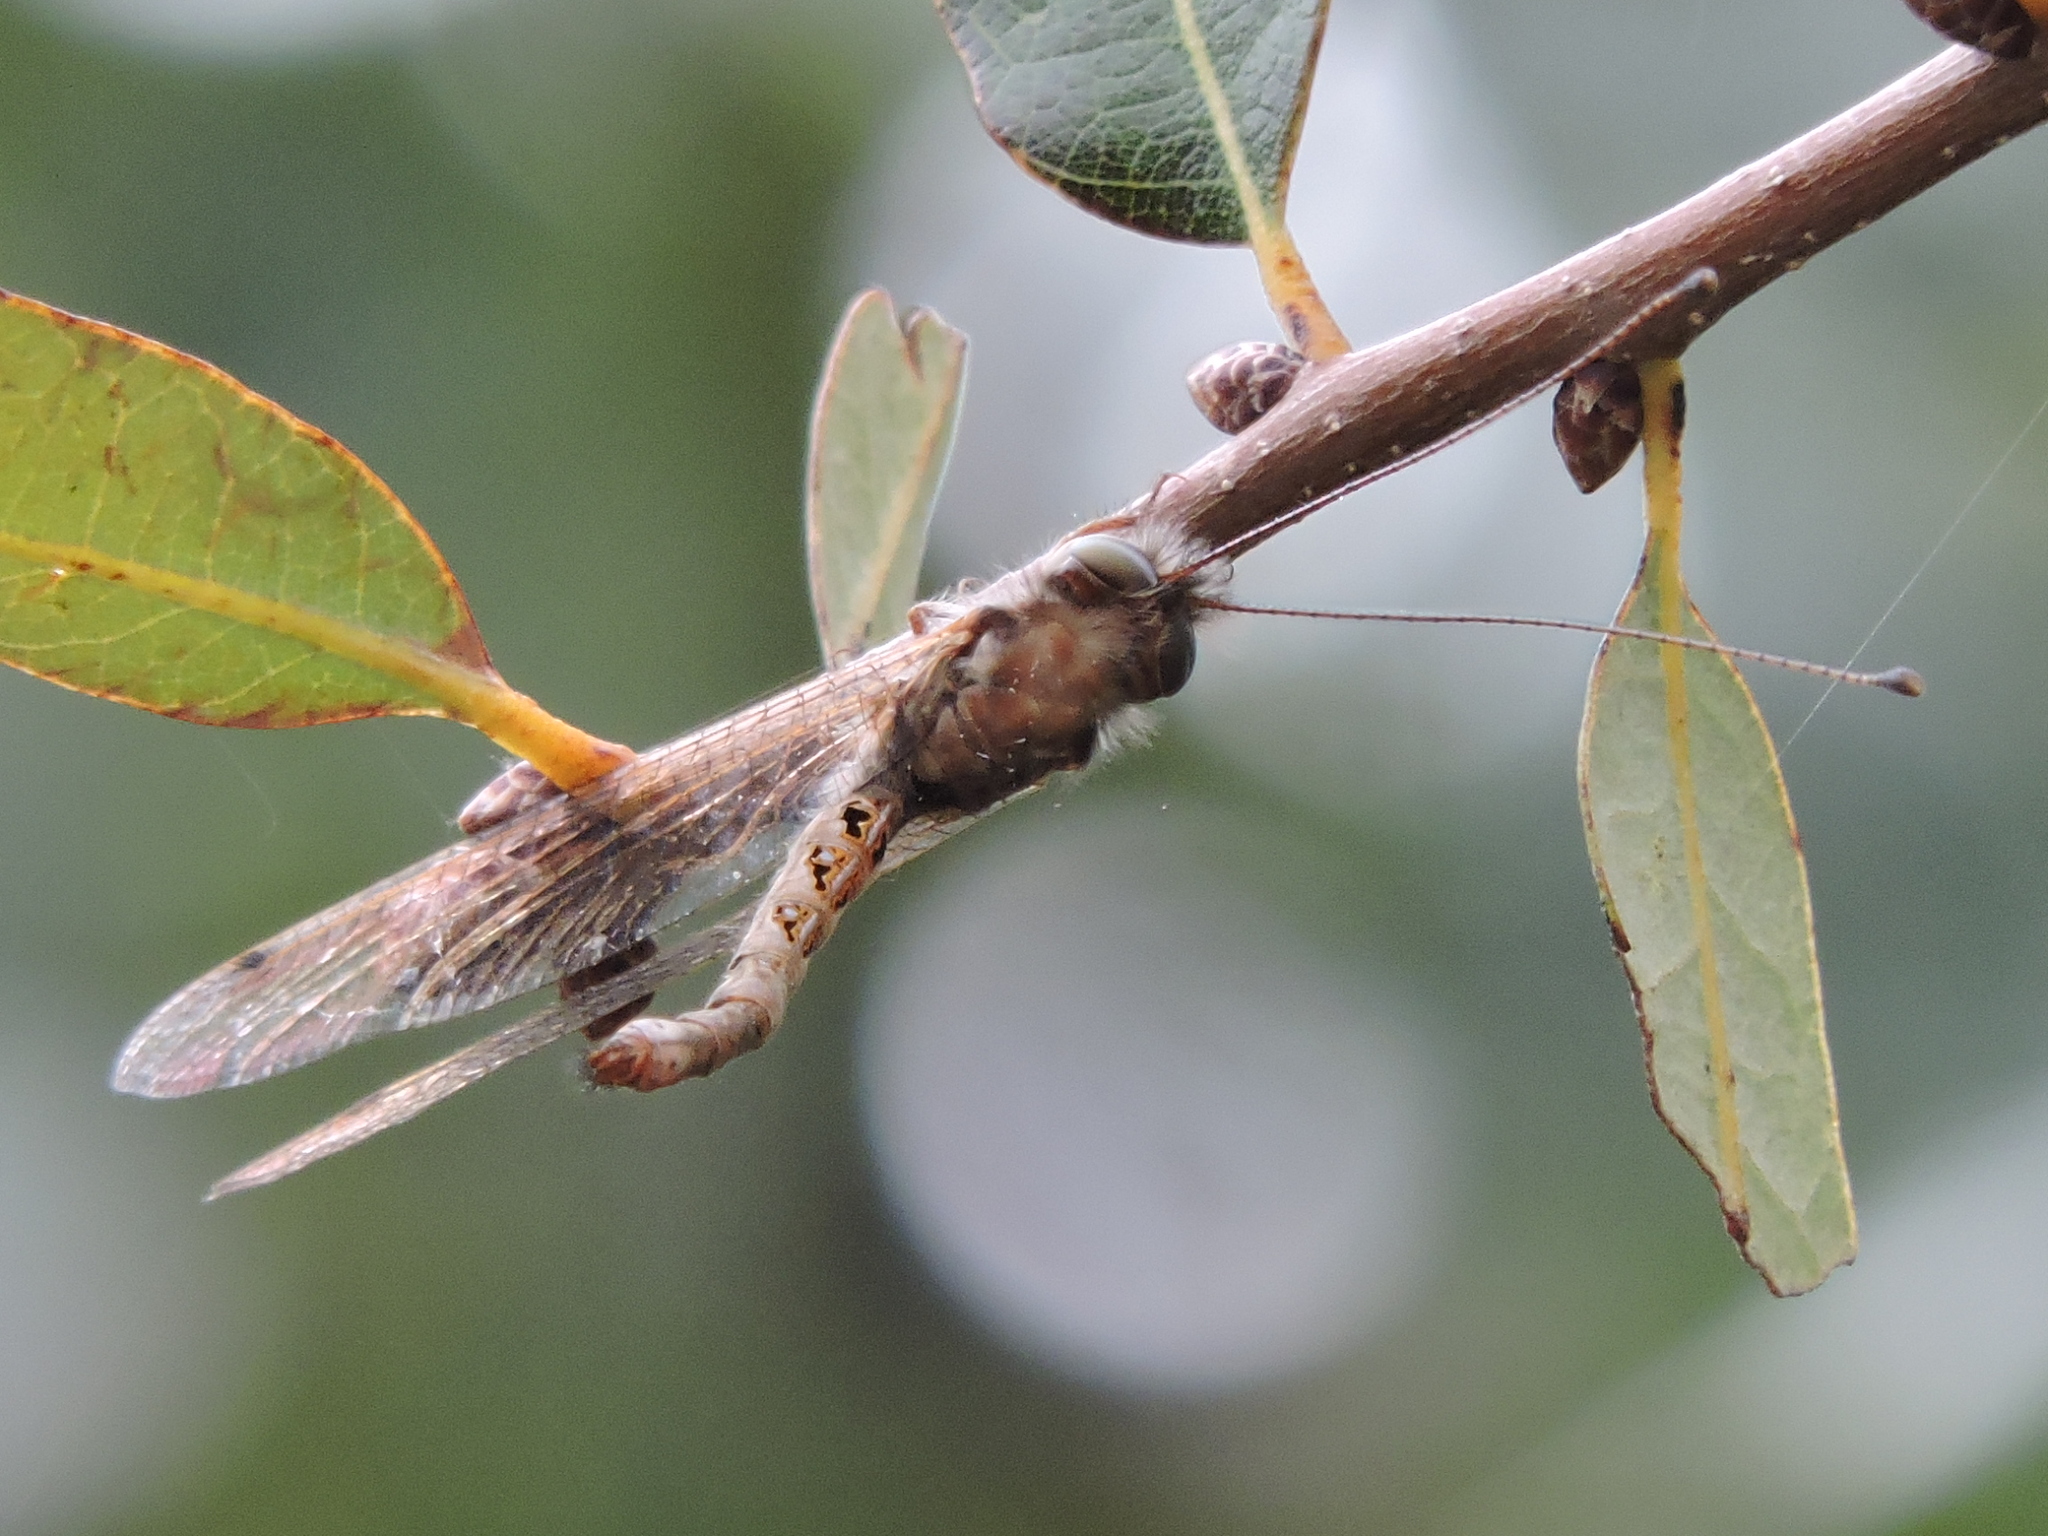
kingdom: Animalia
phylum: Arthropoda
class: Insecta
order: Neuroptera
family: Ascalaphidae
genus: Ululodes
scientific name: Ululodes macleayanus
